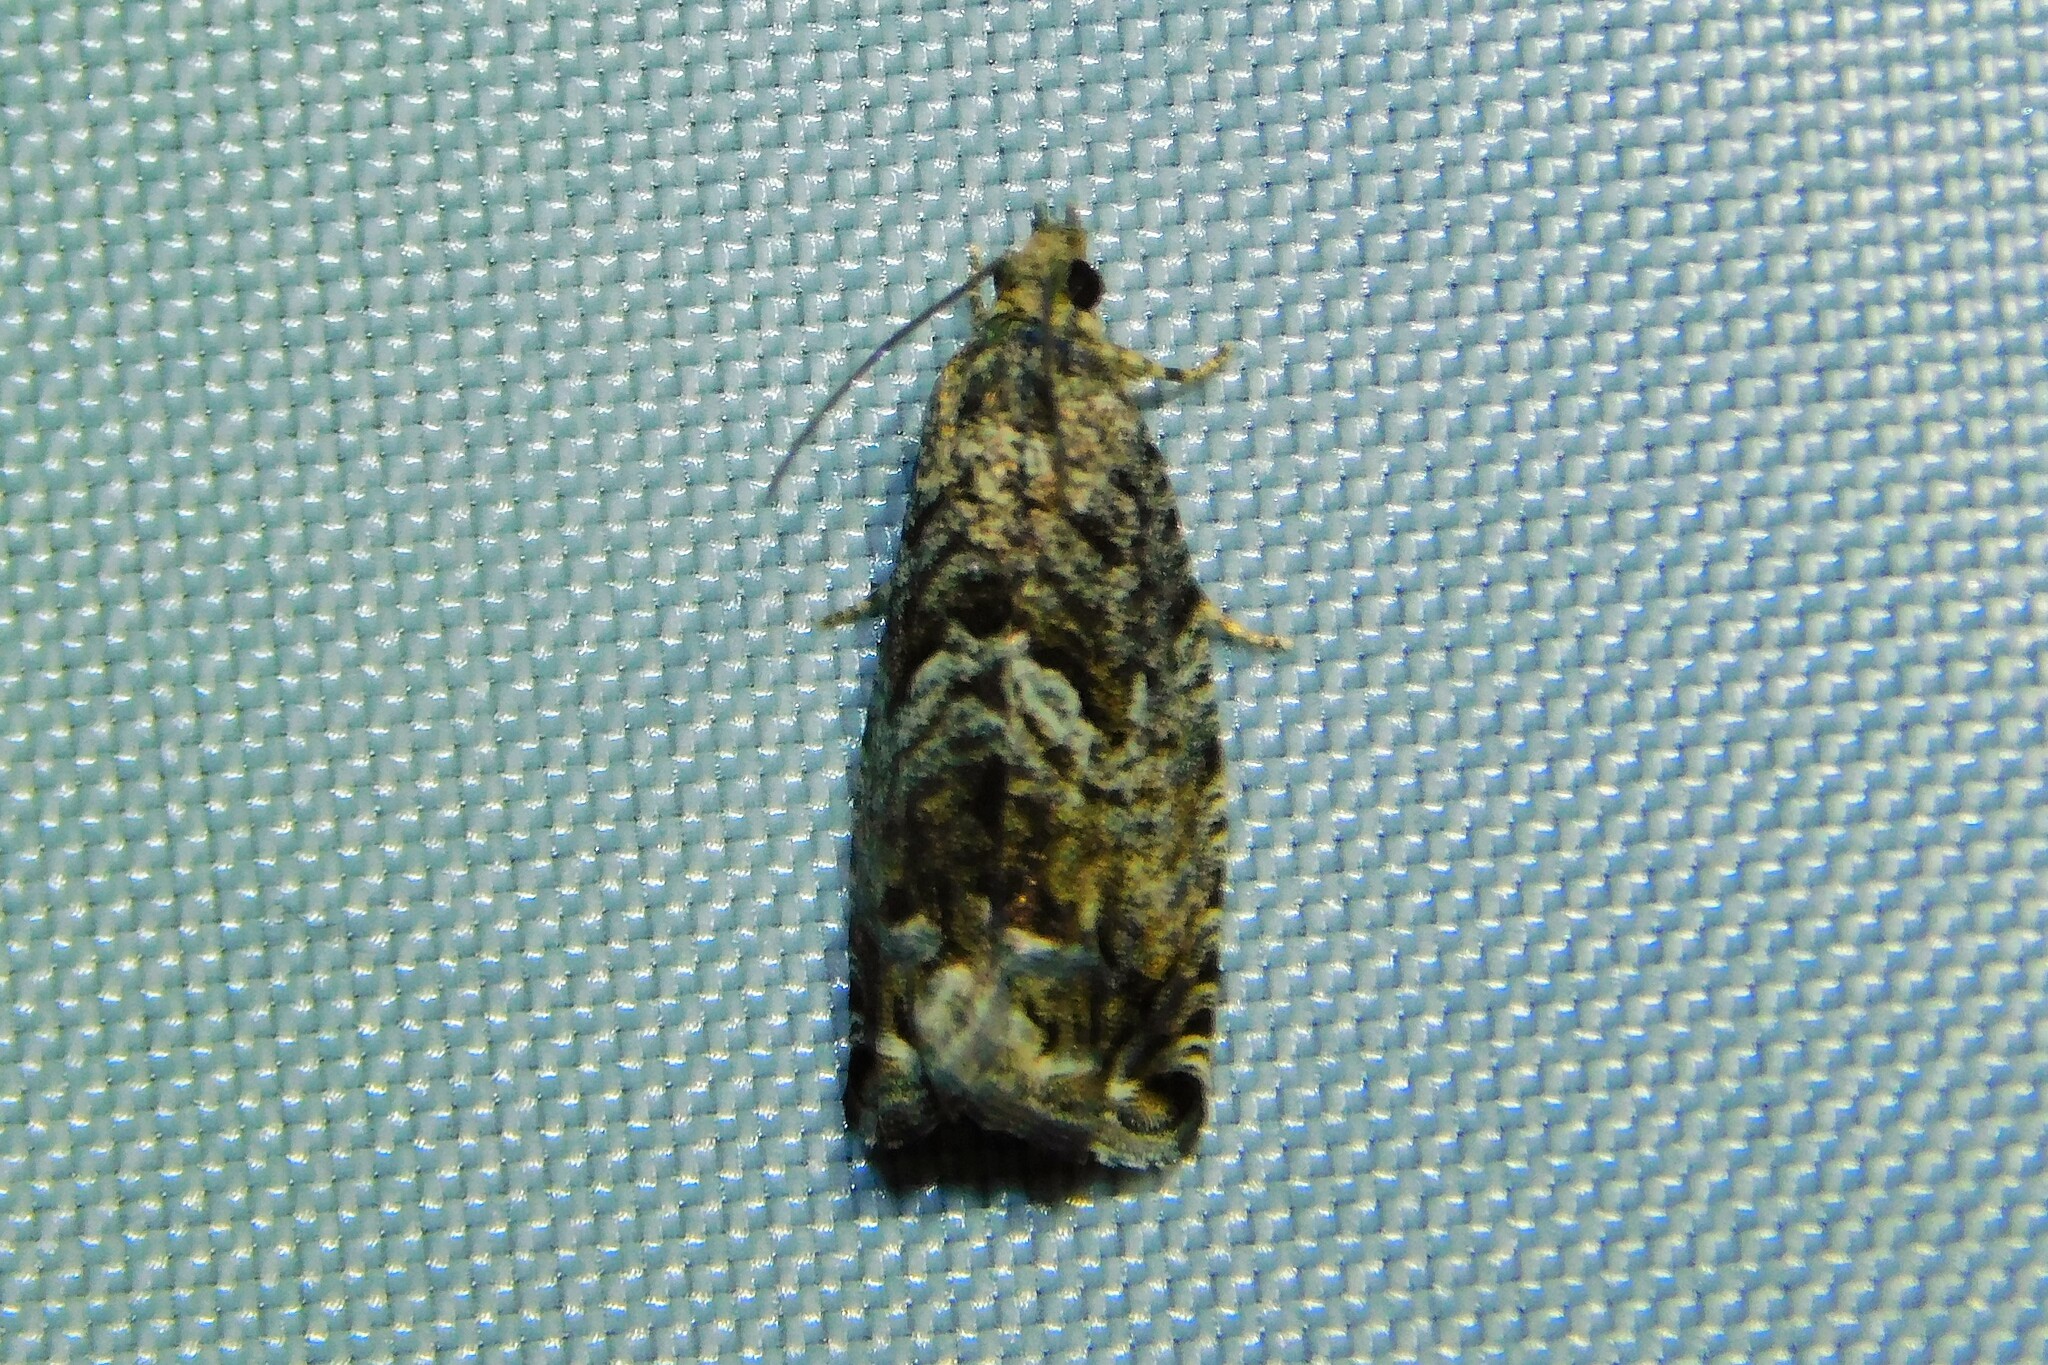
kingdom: Animalia
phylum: Arthropoda
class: Insecta
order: Lepidoptera
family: Tortricidae
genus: Cydia
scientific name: Cydia fagiglandana
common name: Large beech piercer
